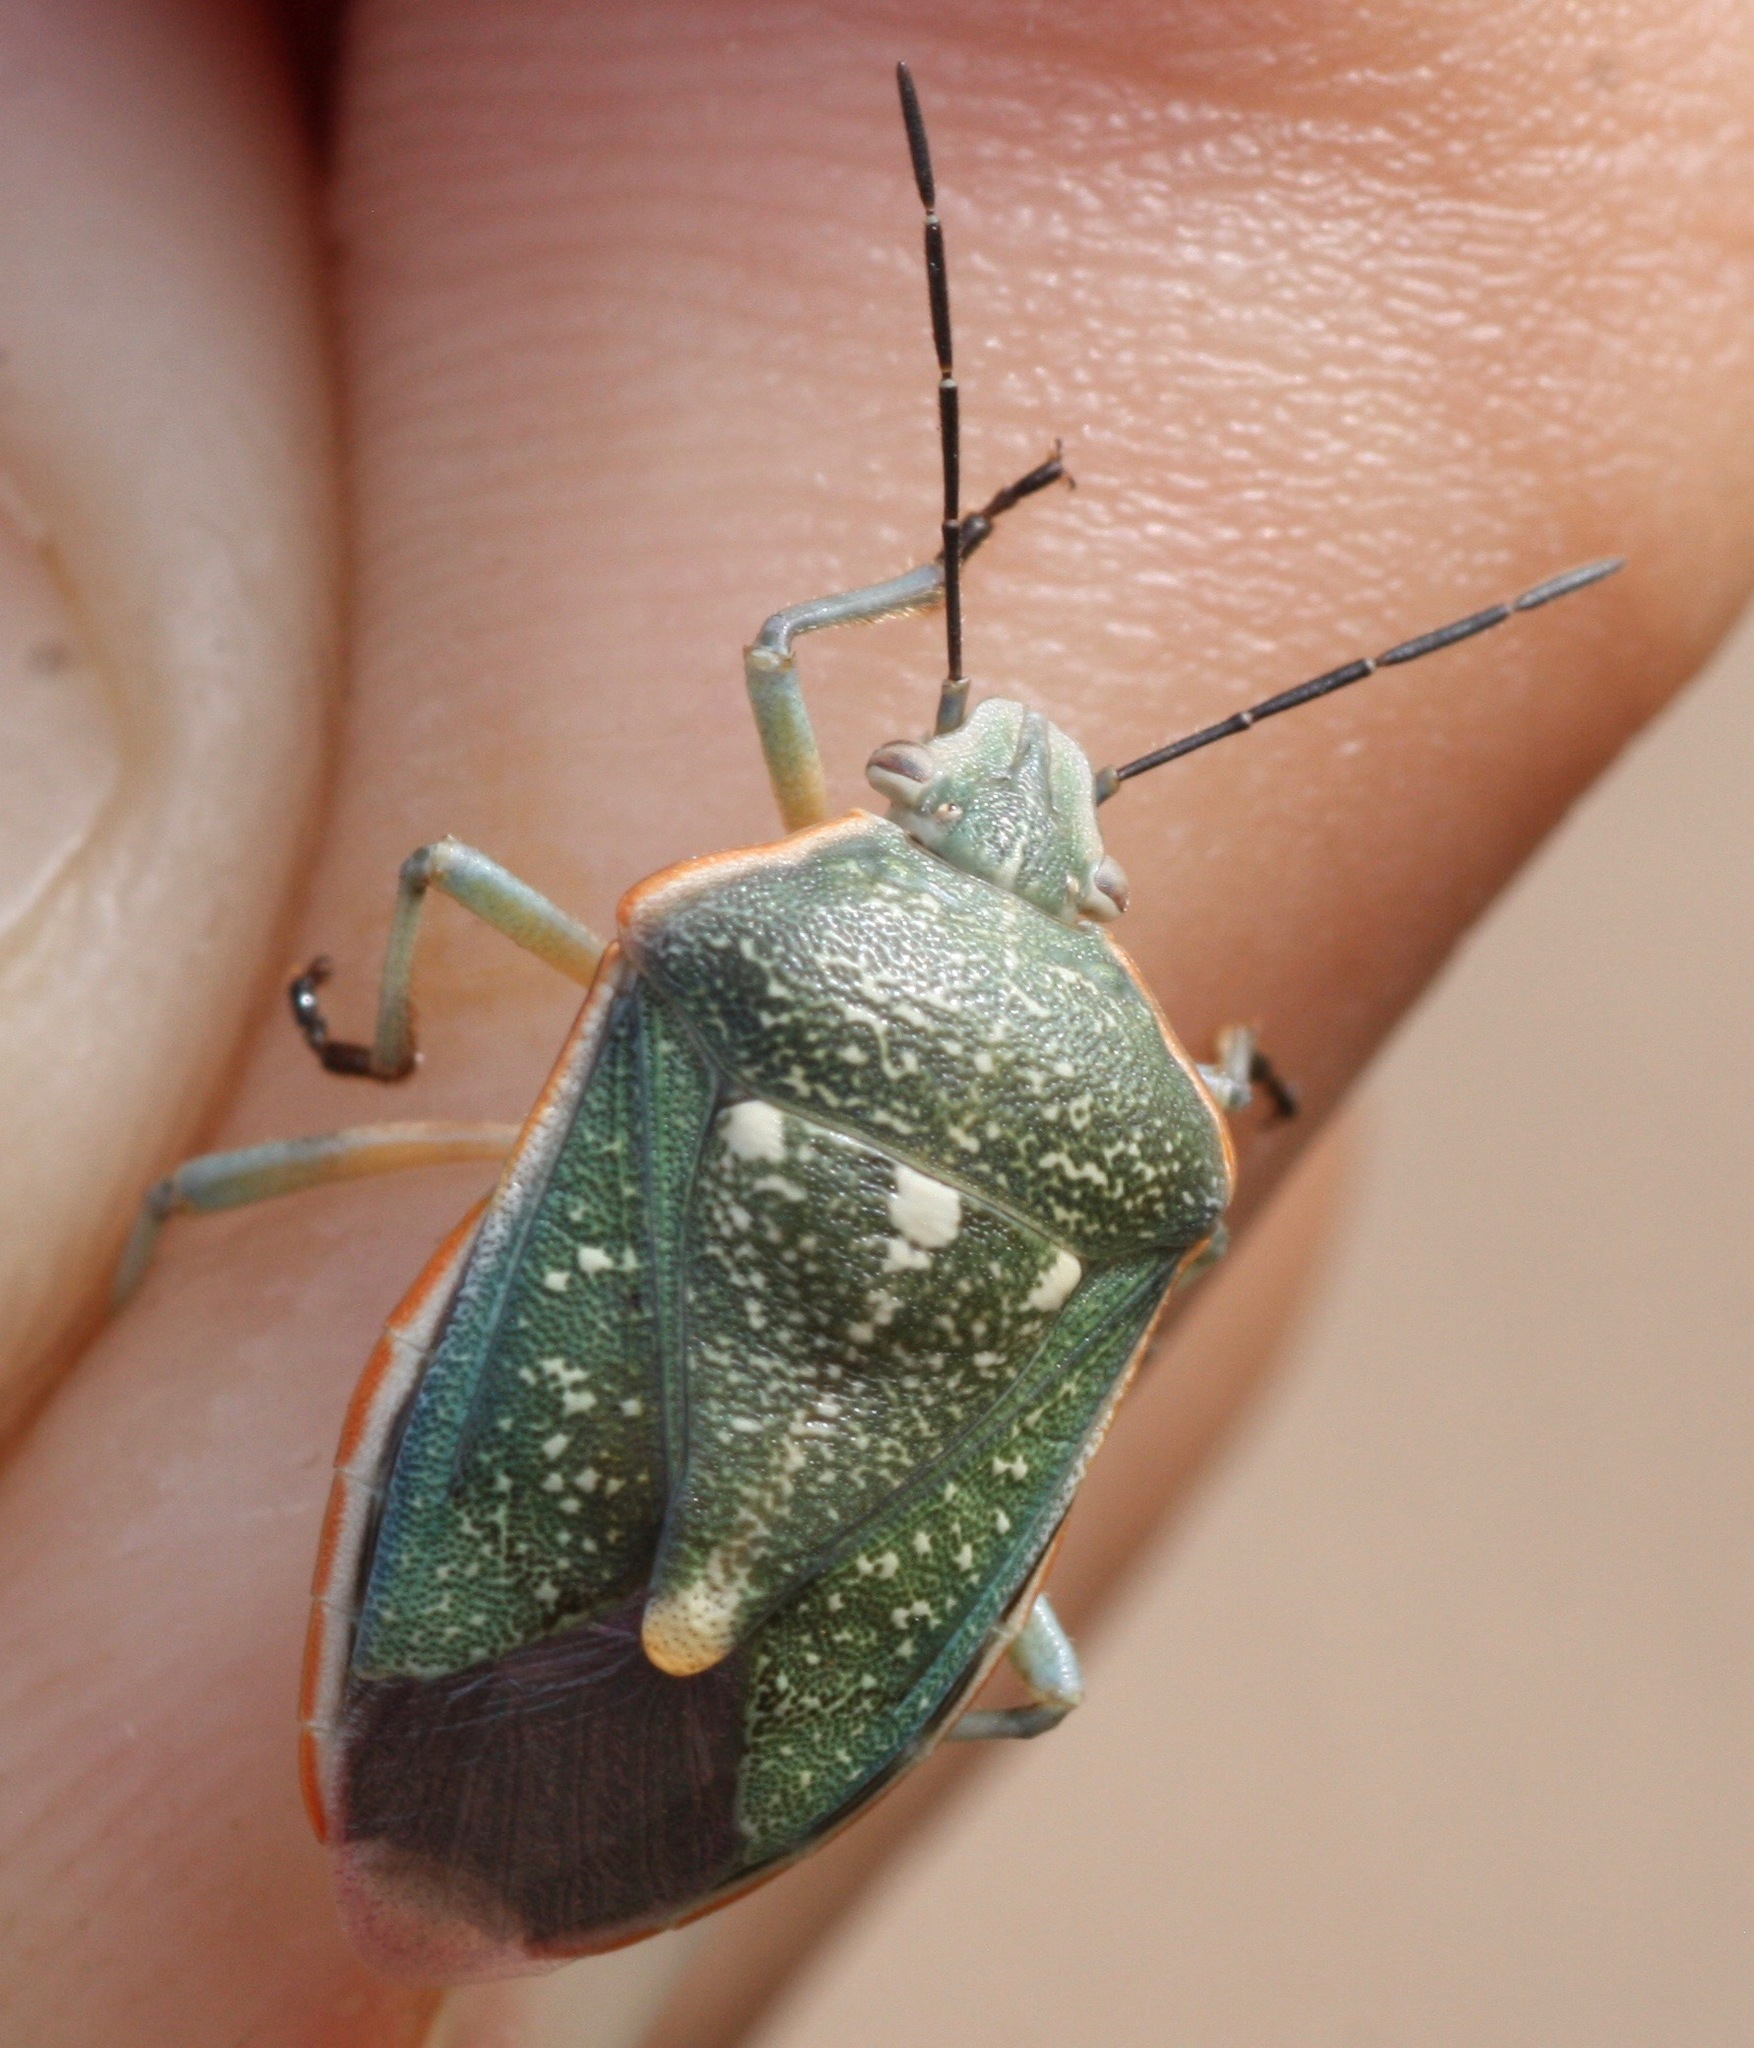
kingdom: Animalia
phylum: Arthropoda
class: Insecta
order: Hemiptera
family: Pentatomidae
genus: Chlorochroa
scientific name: Chlorochroa sayi
